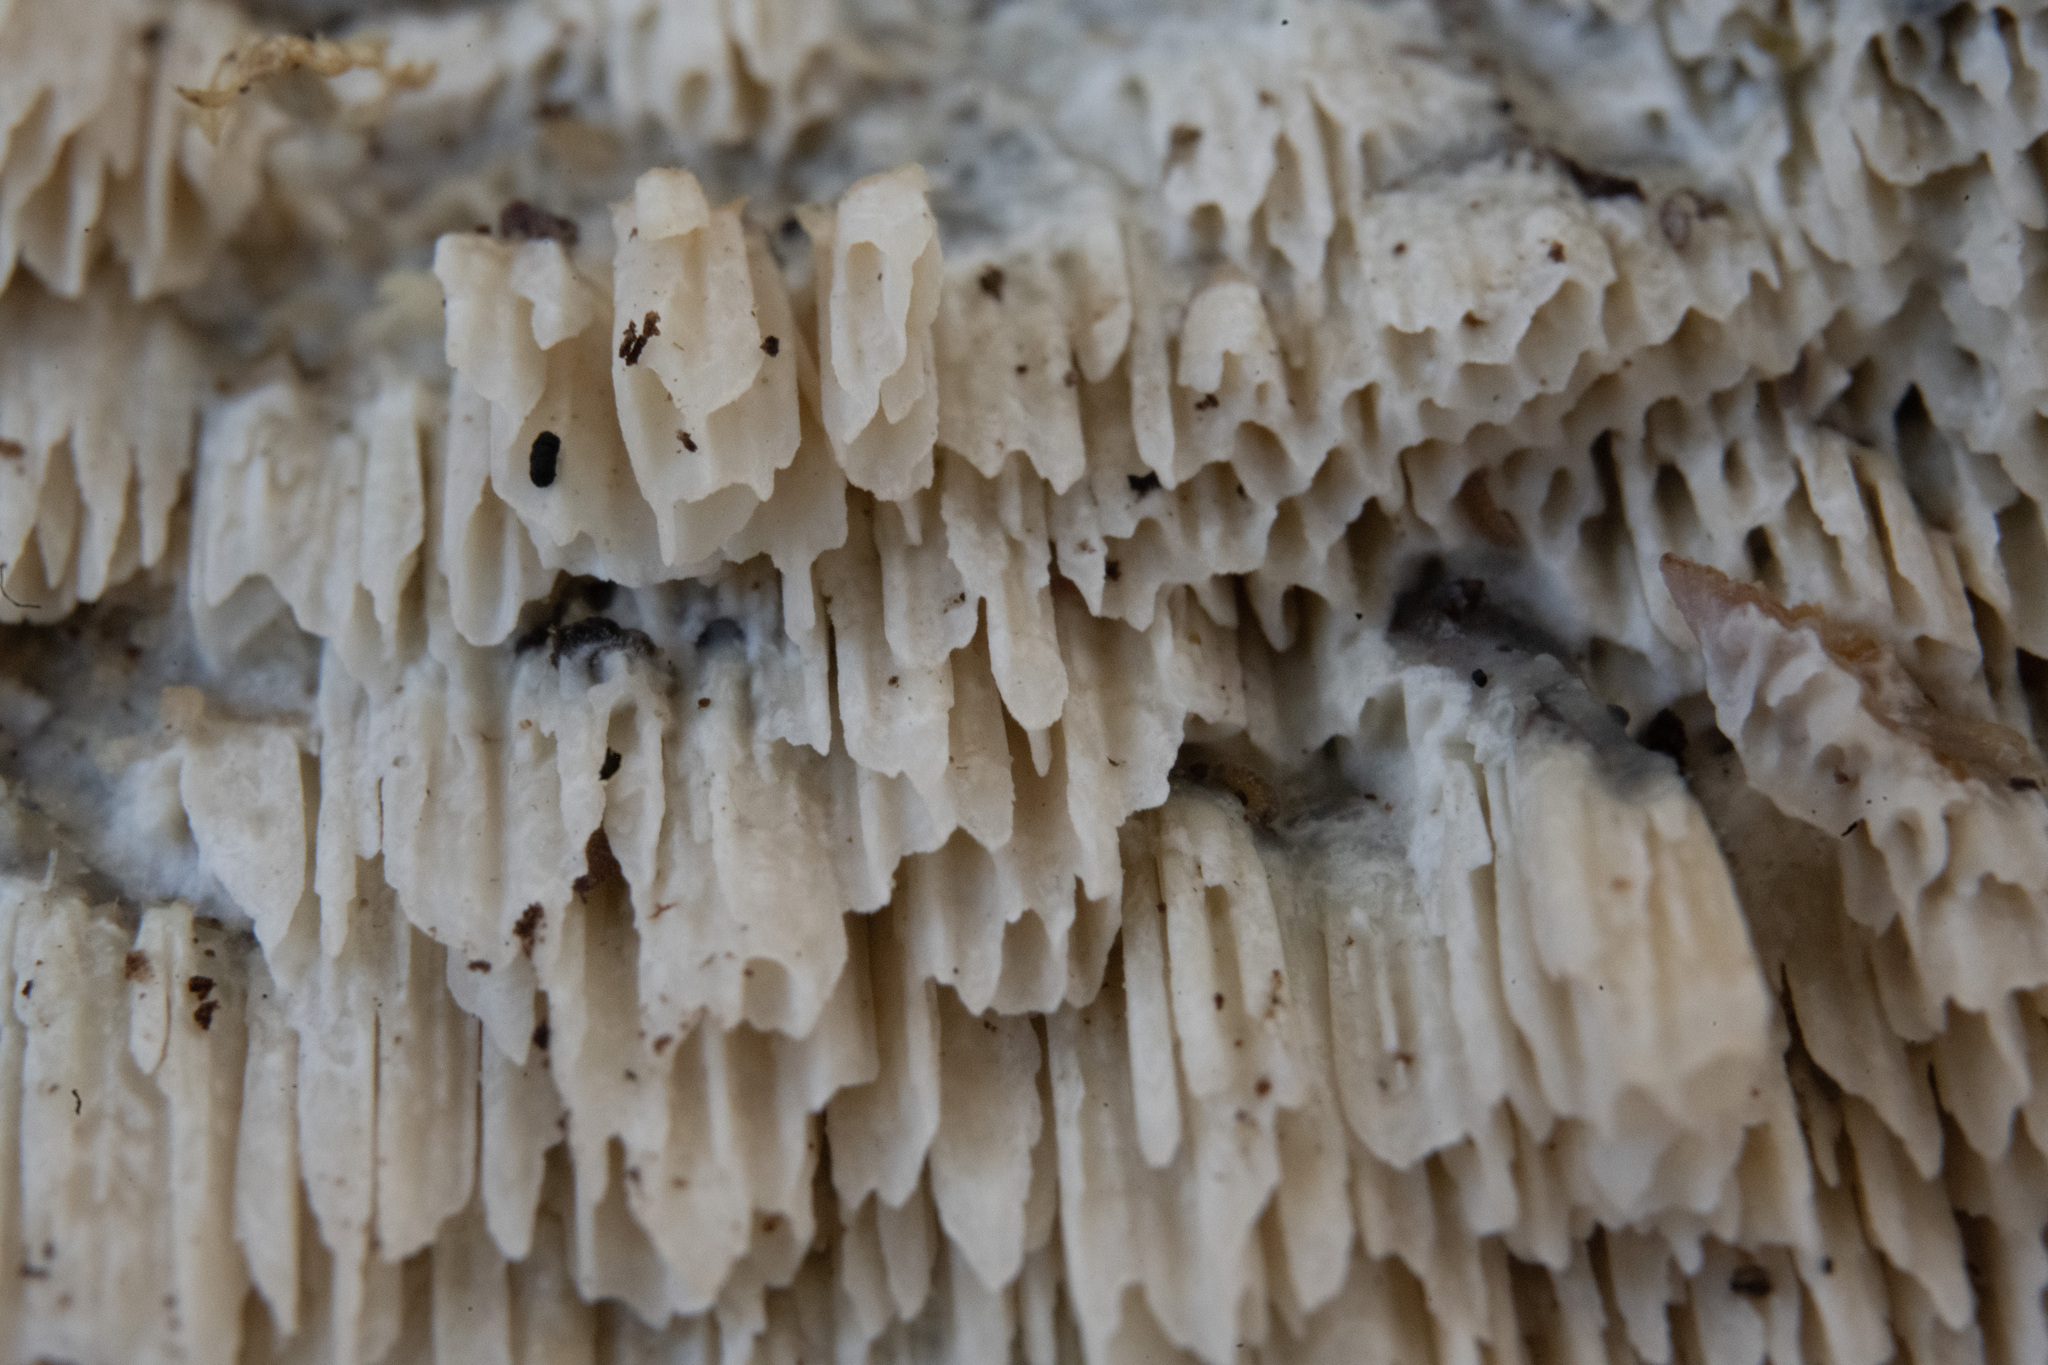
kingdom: Fungi
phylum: Basidiomycota
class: Agaricomycetes
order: Hymenochaetales
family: Oxyporaceae
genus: Oxyporus
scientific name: Oxyporus spiculifer
